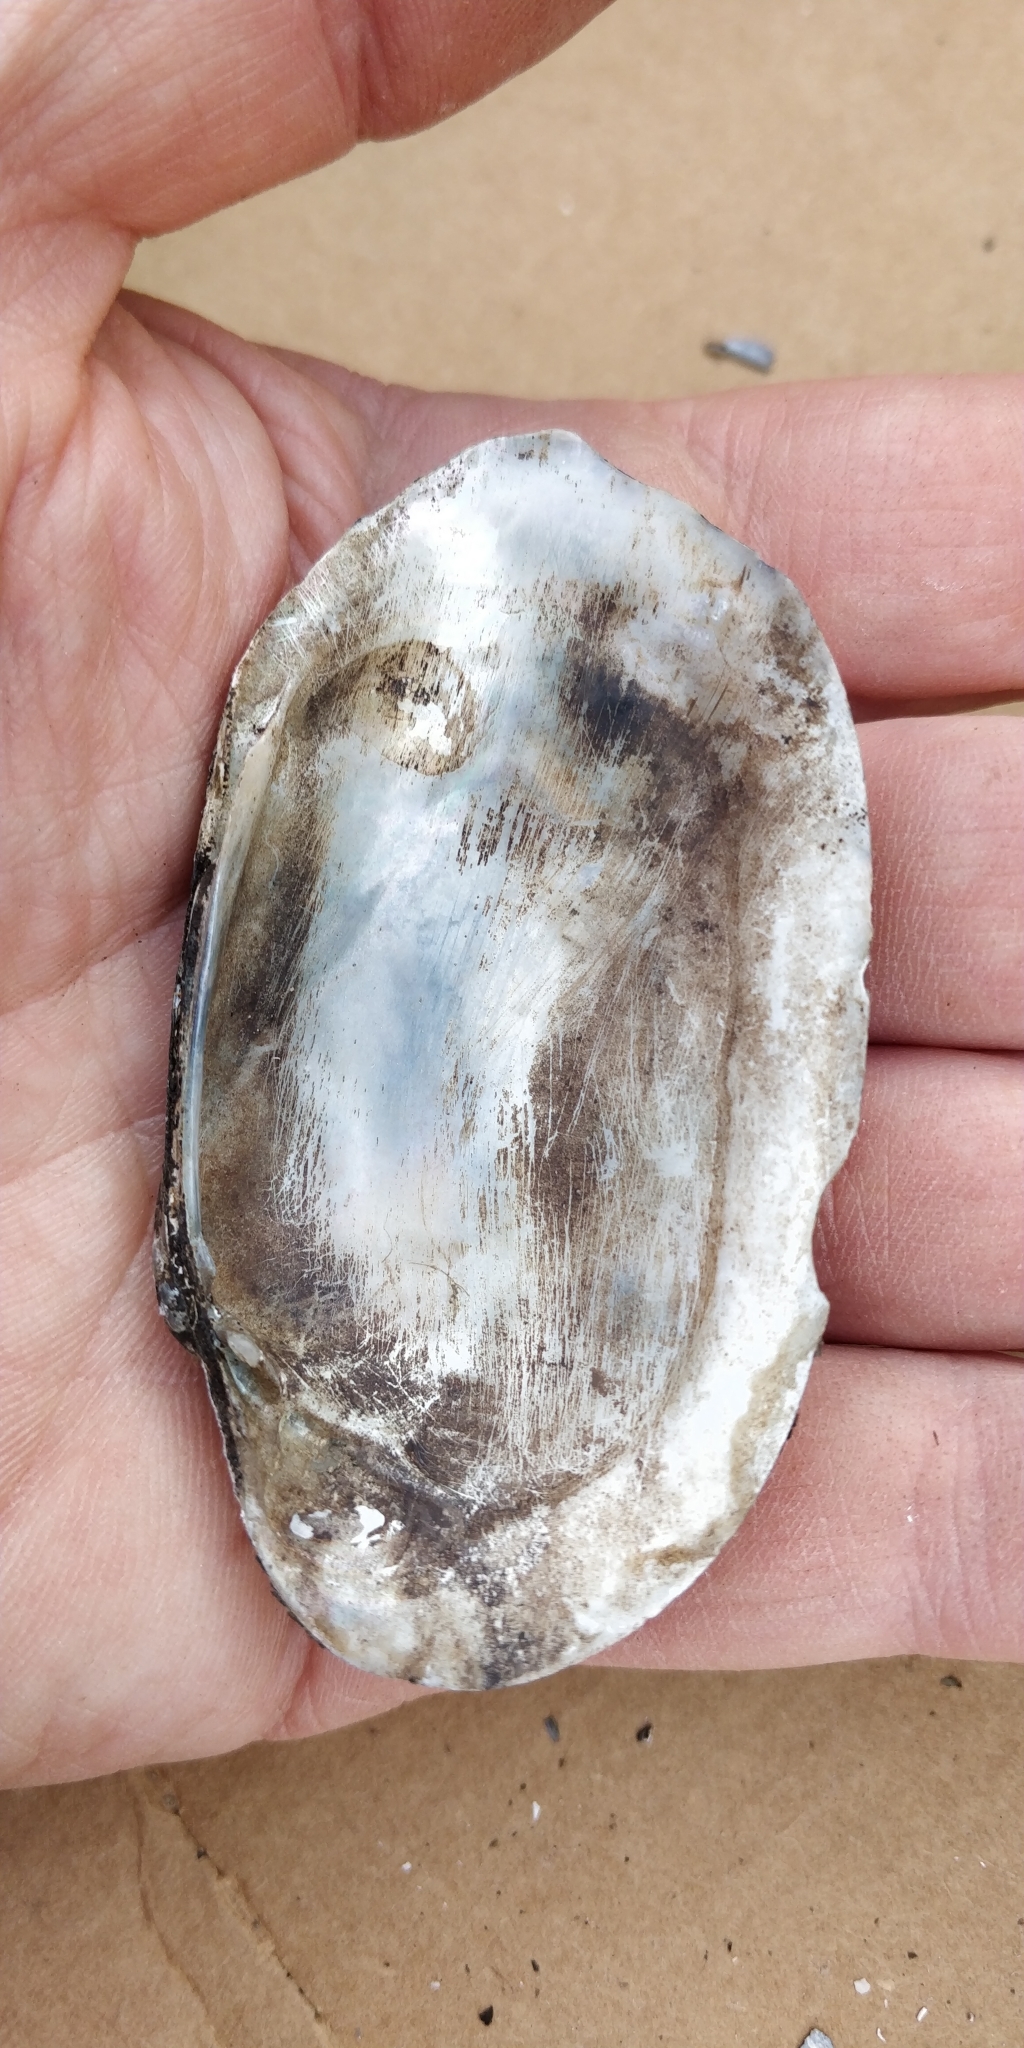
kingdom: Animalia
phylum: Mollusca
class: Bivalvia
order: Unionida
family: Unionidae
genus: Lampsilis
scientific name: Lampsilis siliquoidea
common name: Fatmucket
